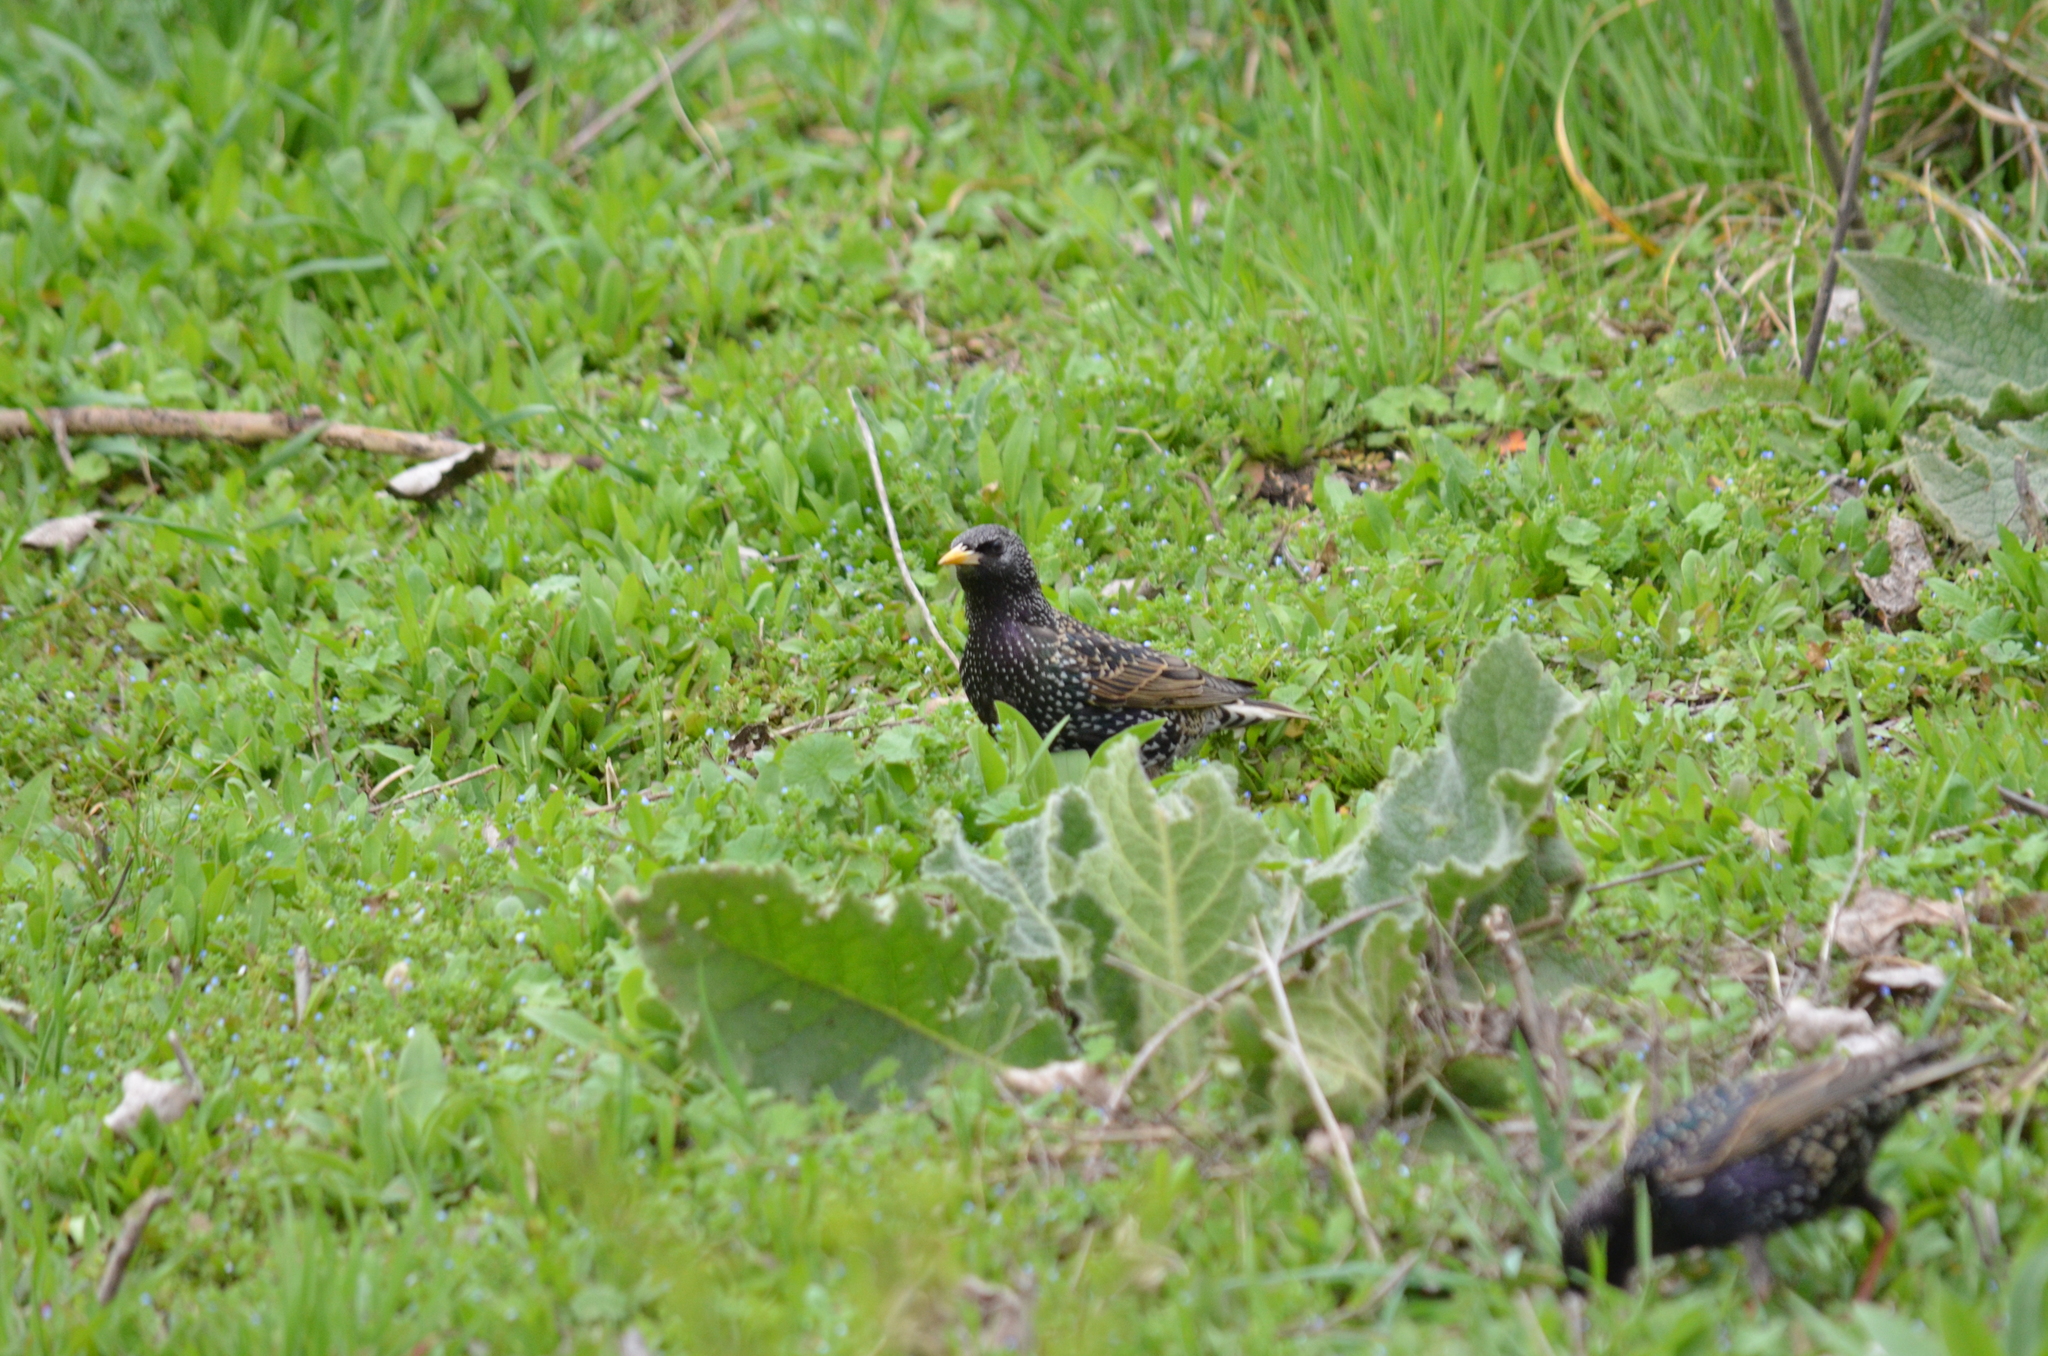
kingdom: Animalia
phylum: Chordata
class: Aves
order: Passeriformes
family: Sturnidae
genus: Sturnus
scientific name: Sturnus vulgaris
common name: Common starling
